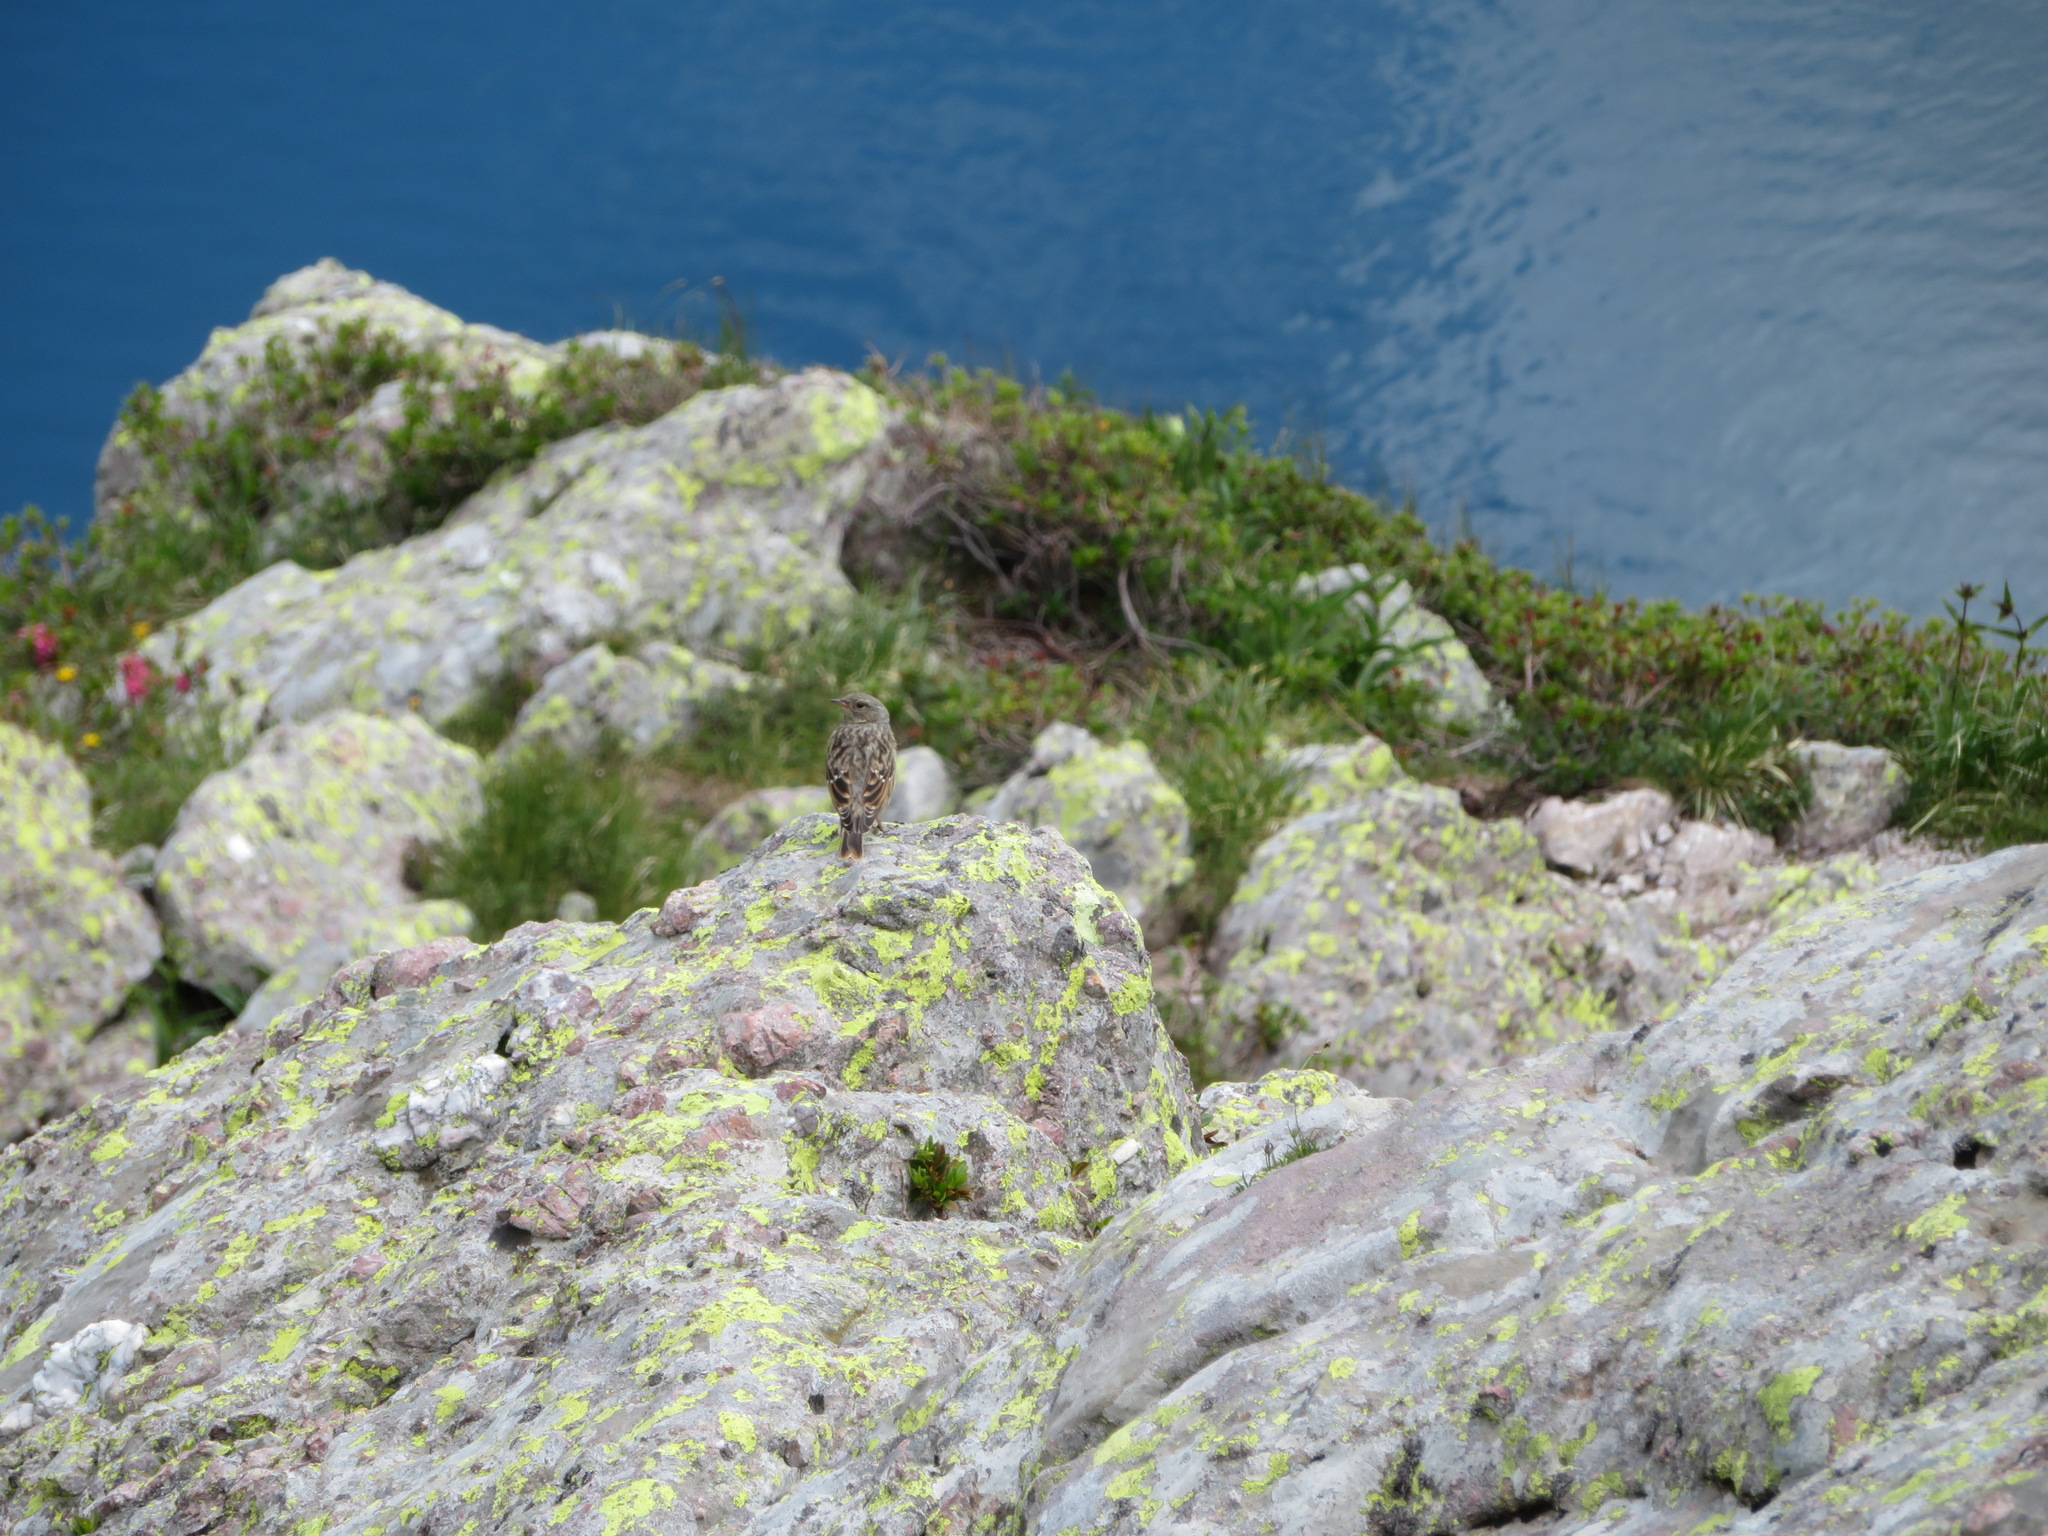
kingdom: Animalia
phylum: Chordata
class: Aves
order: Passeriformes
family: Prunellidae
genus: Prunella
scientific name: Prunella collaris
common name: Alpine accentor
